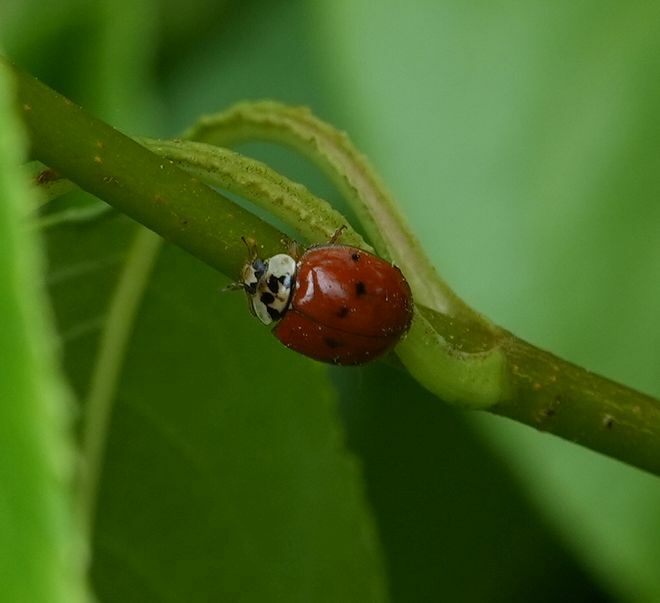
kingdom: Animalia
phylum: Arthropoda
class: Insecta
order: Coleoptera
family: Coccinellidae
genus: Harmonia
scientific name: Harmonia axyridis
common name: Harlequin ladybird
